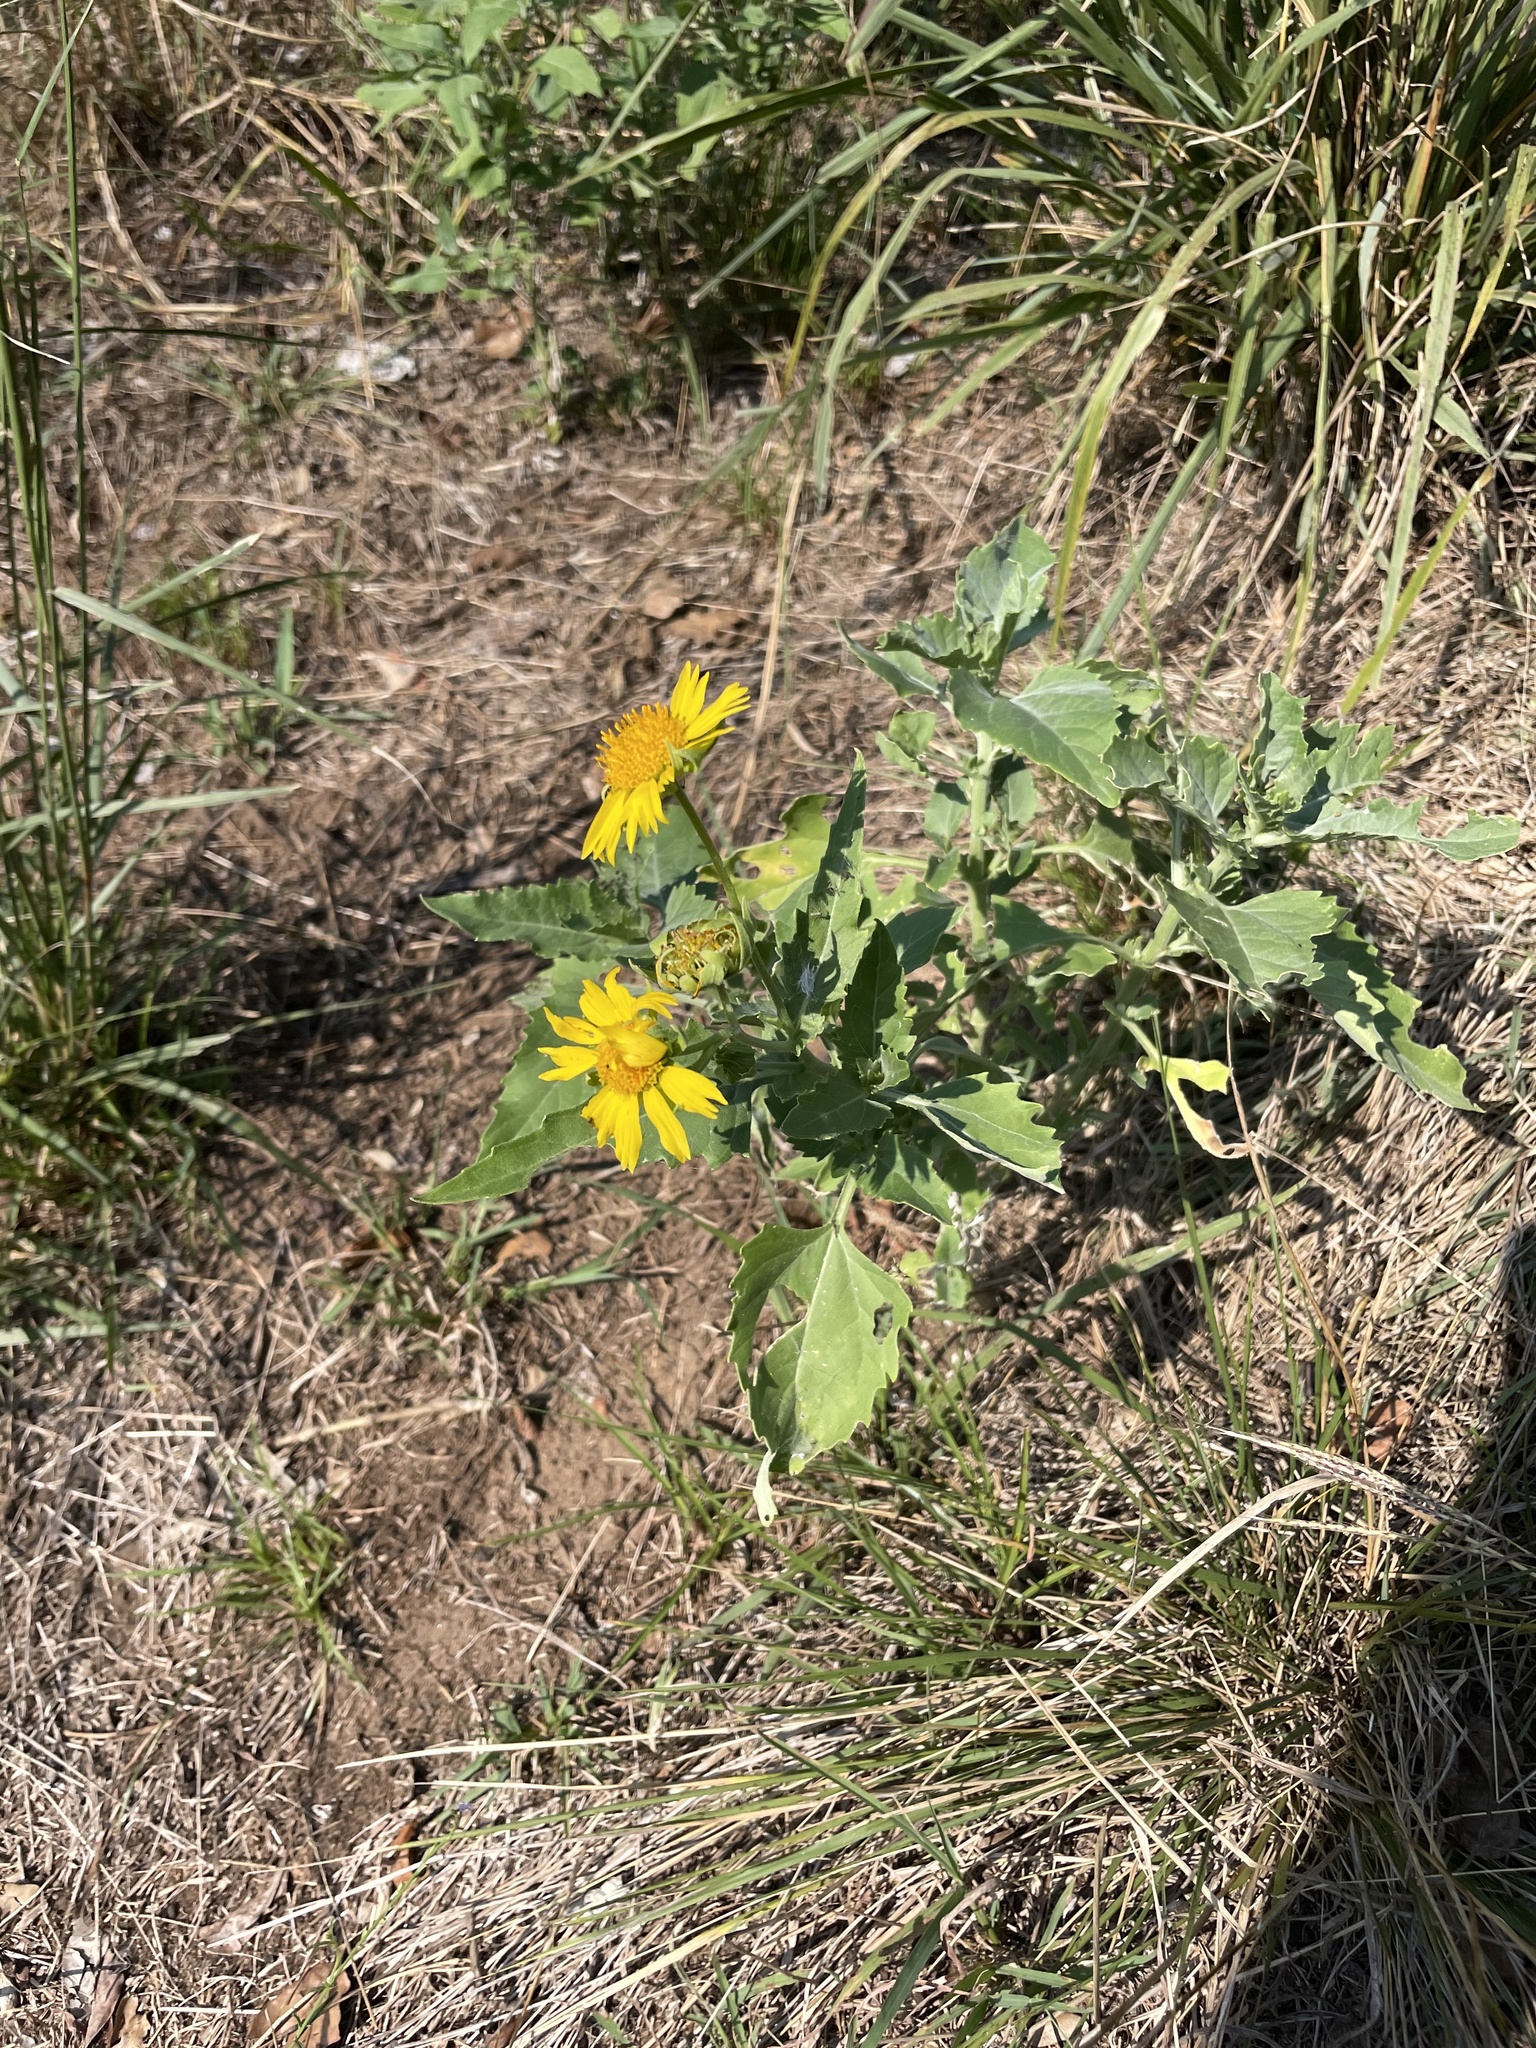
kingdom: Plantae
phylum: Tracheophyta
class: Magnoliopsida
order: Asterales
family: Asteraceae
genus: Verbesina
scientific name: Verbesina encelioides
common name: Golden crownbeard
